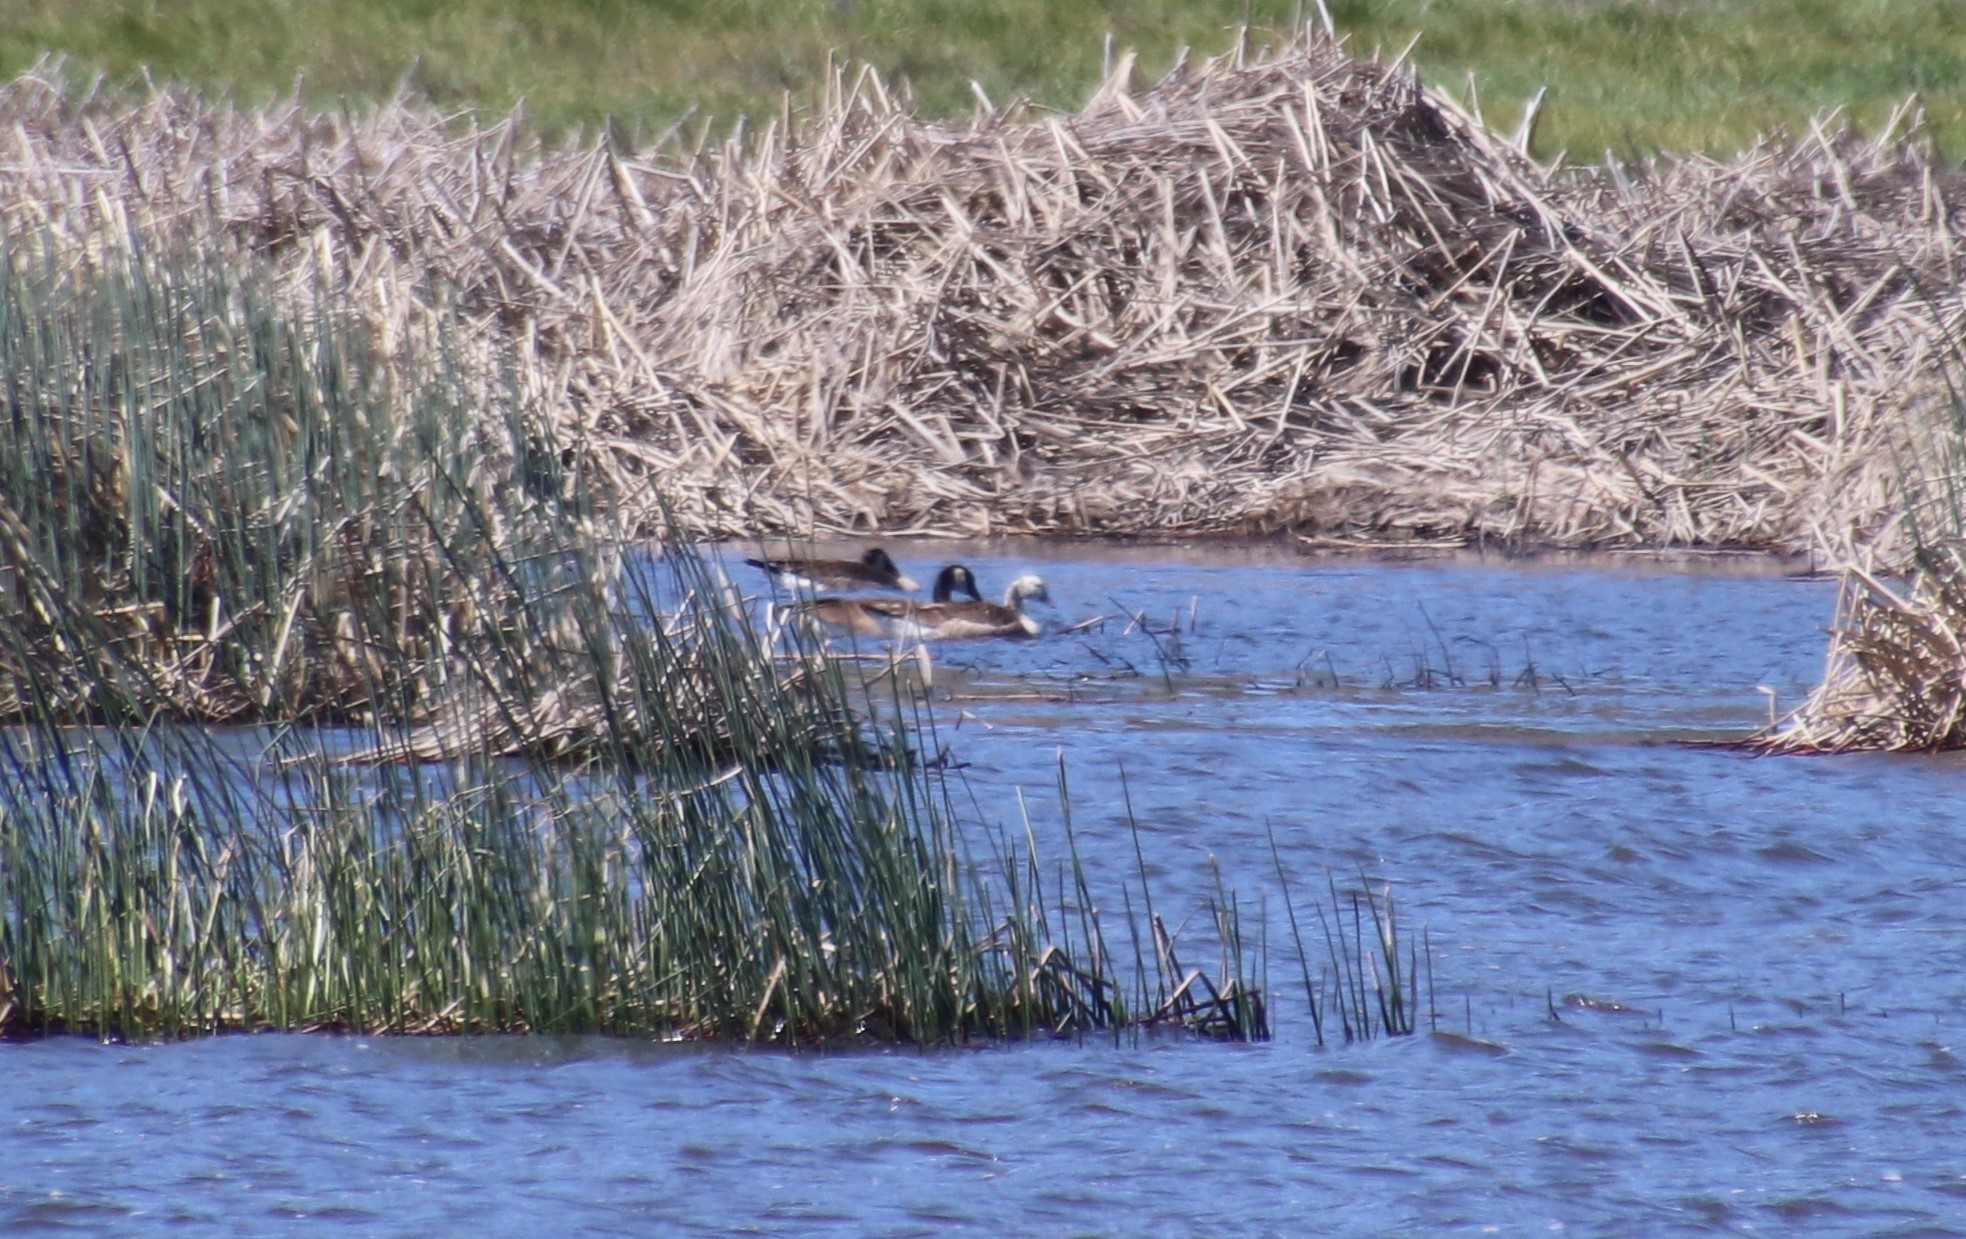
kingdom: Animalia
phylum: Chordata
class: Aves
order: Anseriformes
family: Anatidae
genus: Branta
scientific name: Branta canadensis
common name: Canada goose
